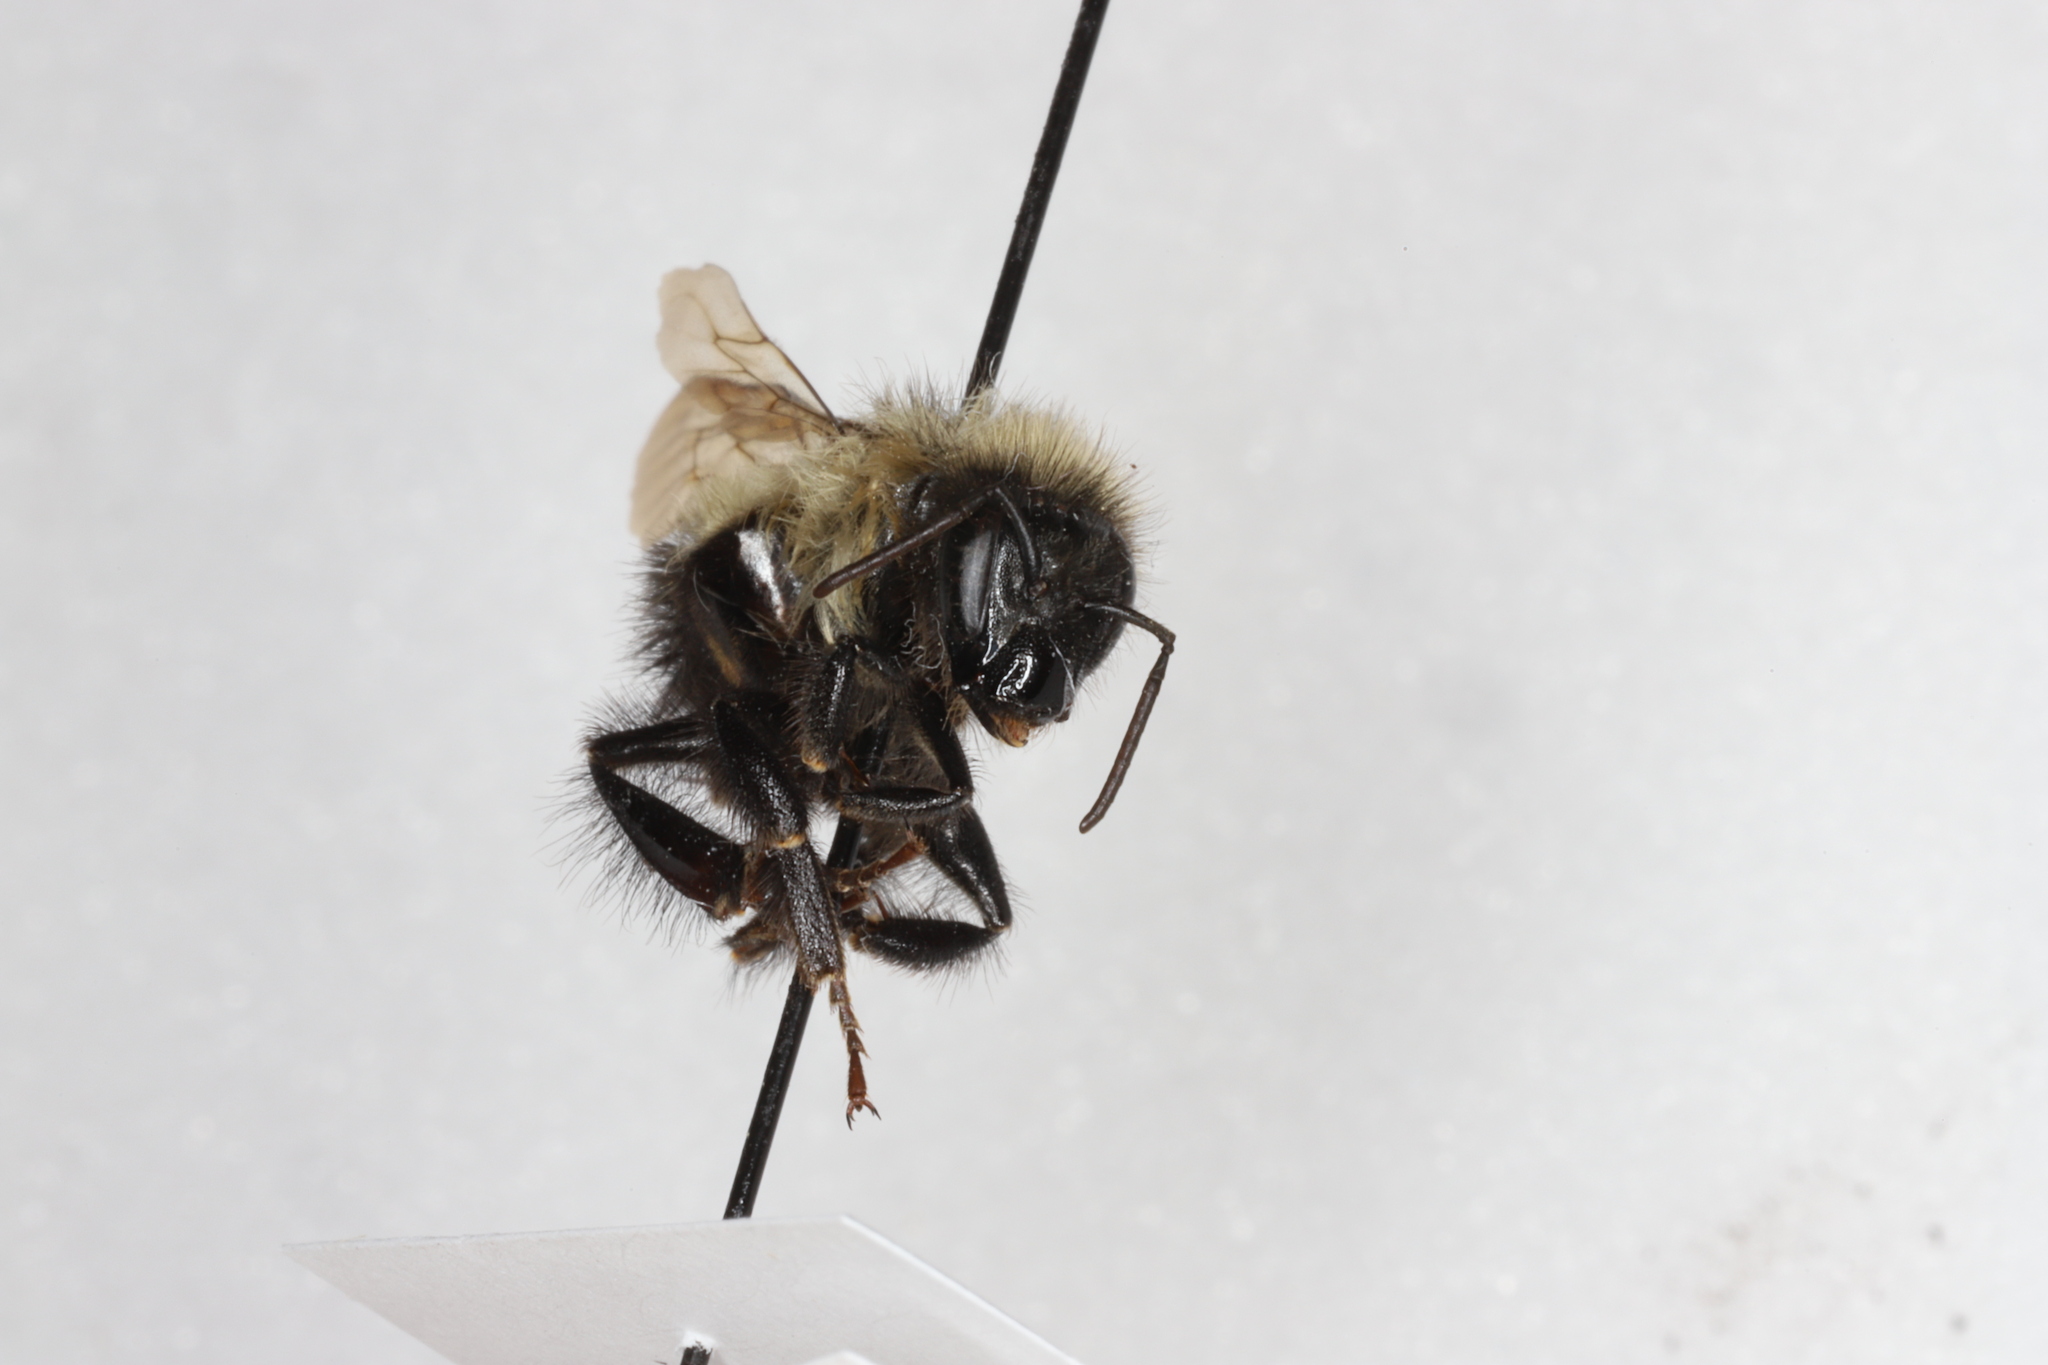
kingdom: Animalia
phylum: Arthropoda
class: Insecta
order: Hymenoptera
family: Apidae
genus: Bombus
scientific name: Bombus vagans
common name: Half-black bumble bee
